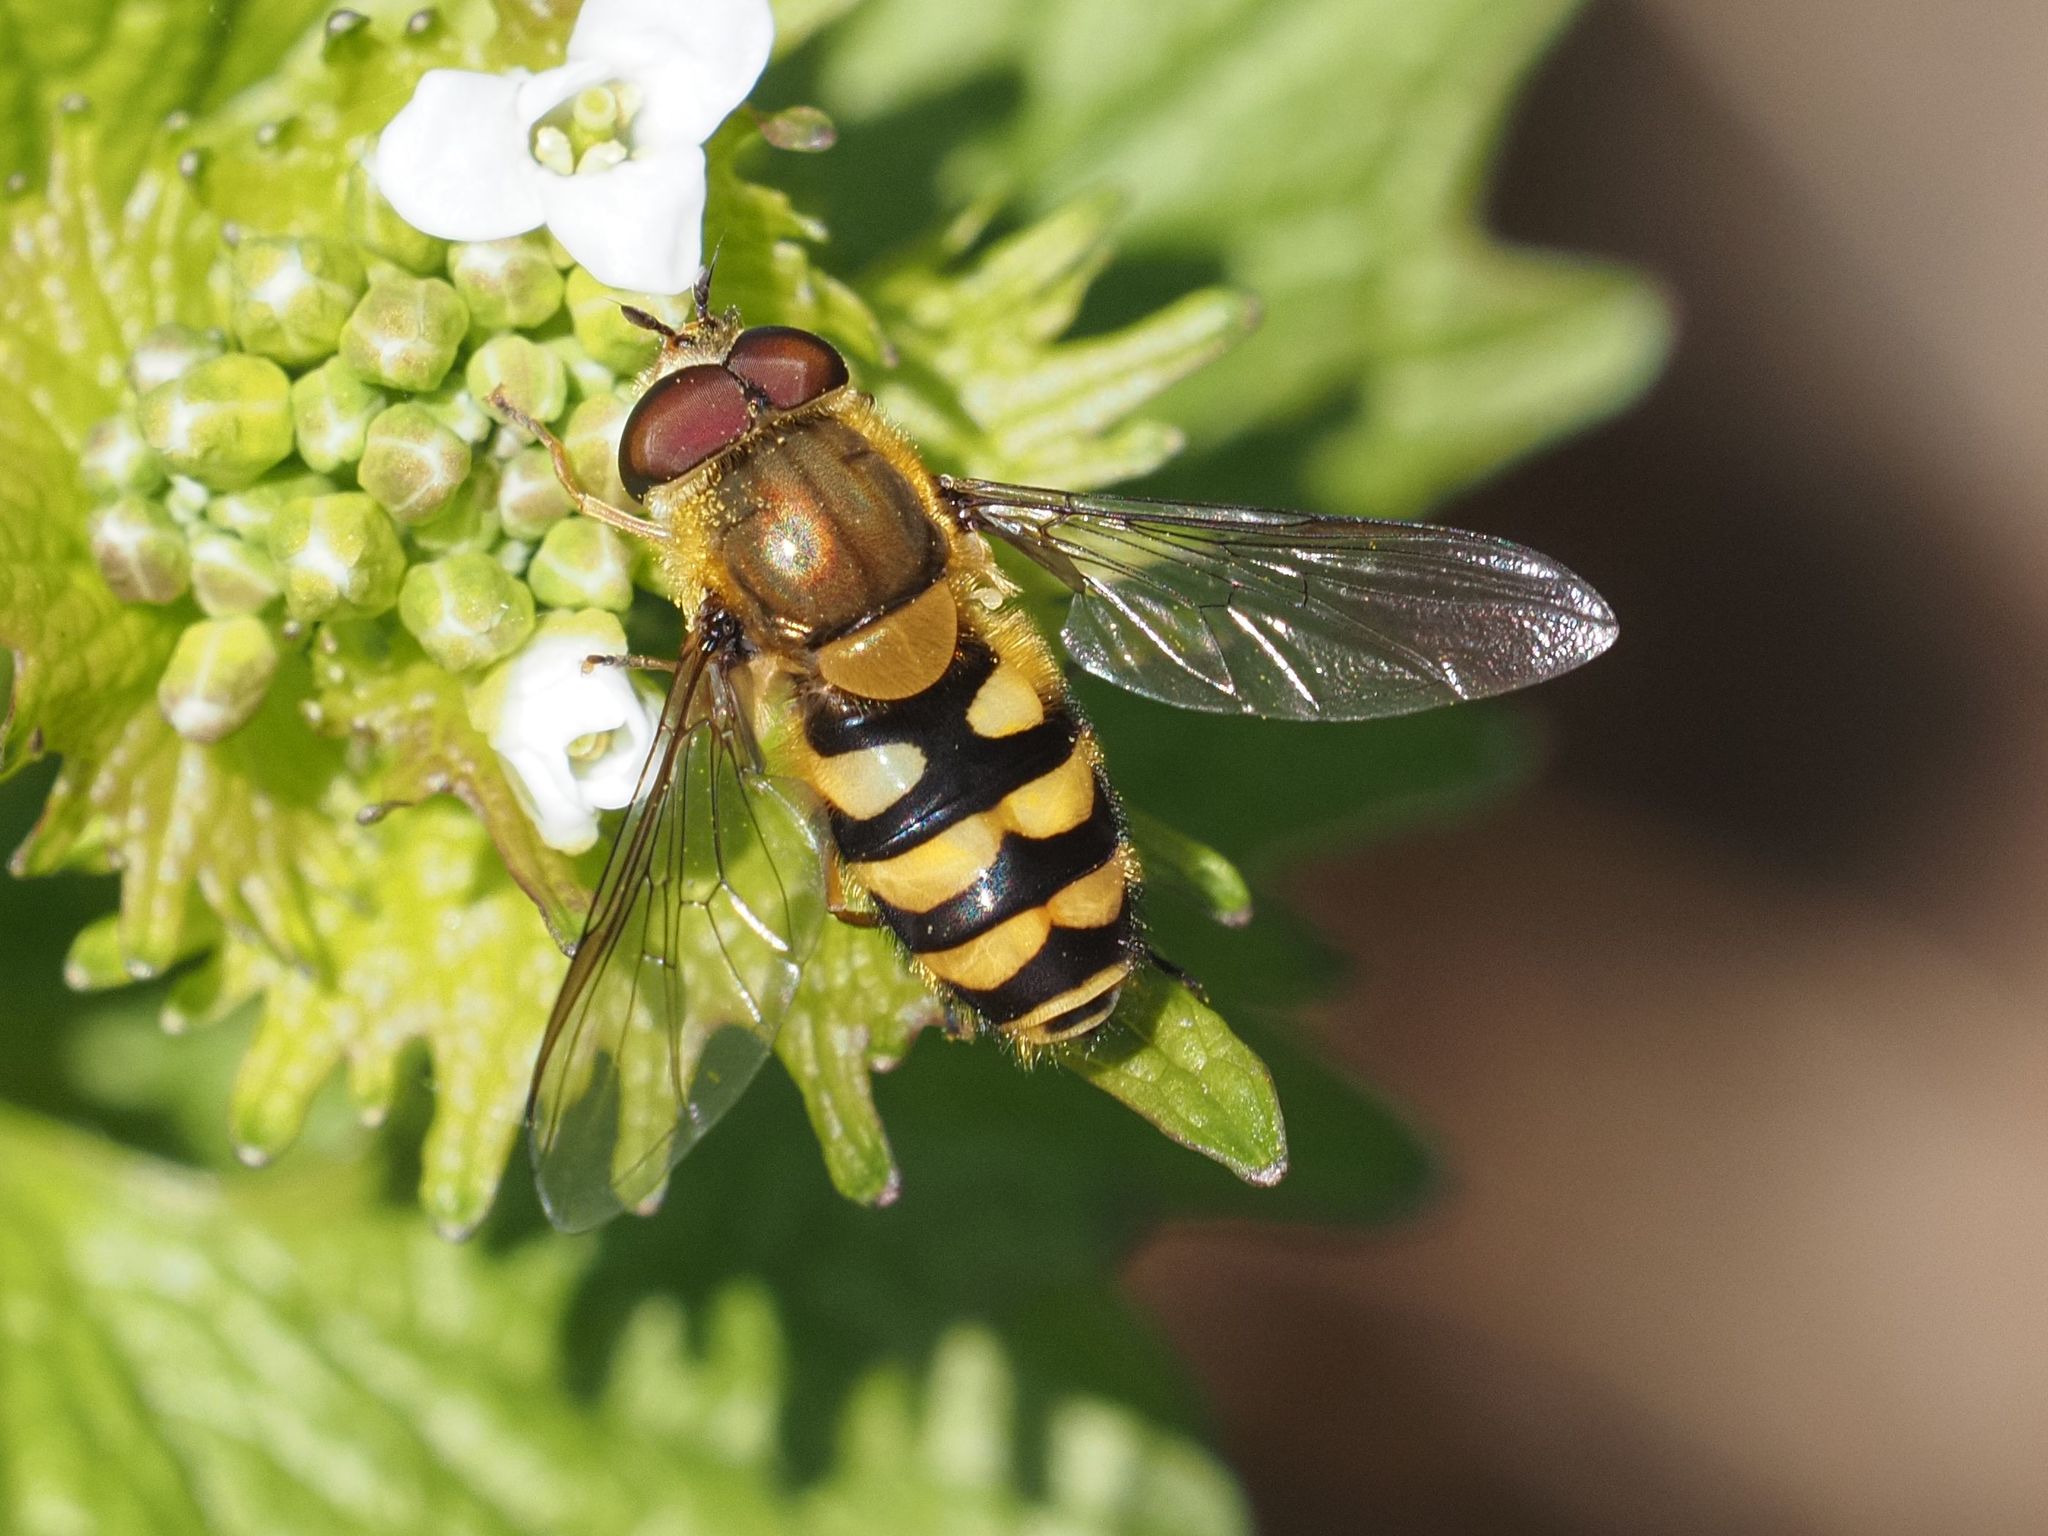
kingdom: Animalia
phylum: Arthropoda
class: Insecta
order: Diptera
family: Syrphidae
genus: Syrphus
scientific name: Syrphus
